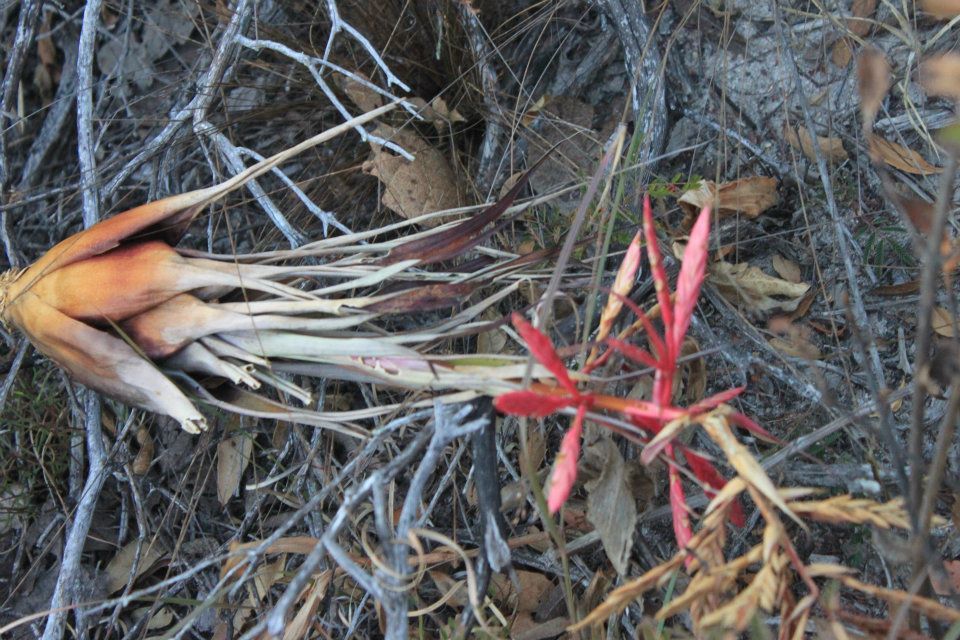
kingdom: Plantae
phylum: Tracheophyta
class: Liliopsida
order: Poales
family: Bromeliaceae
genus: Tillandsia
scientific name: Tillandsia gymnobotrya
